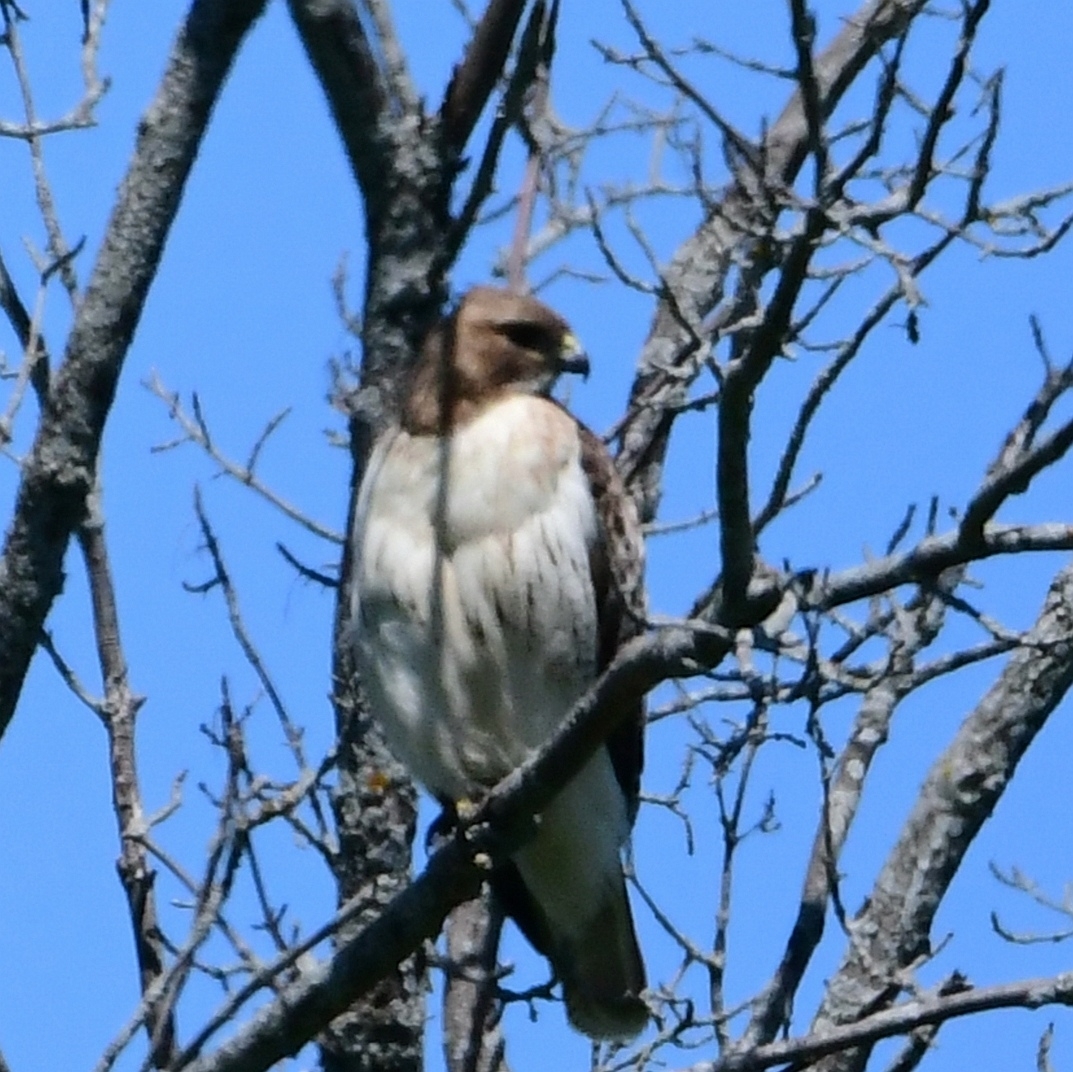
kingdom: Animalia
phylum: Chordata
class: Aves
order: Accipitriformes
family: Accipitridae
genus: Buteo
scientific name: Buteo jamaicensis
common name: Red-tailed hawk
